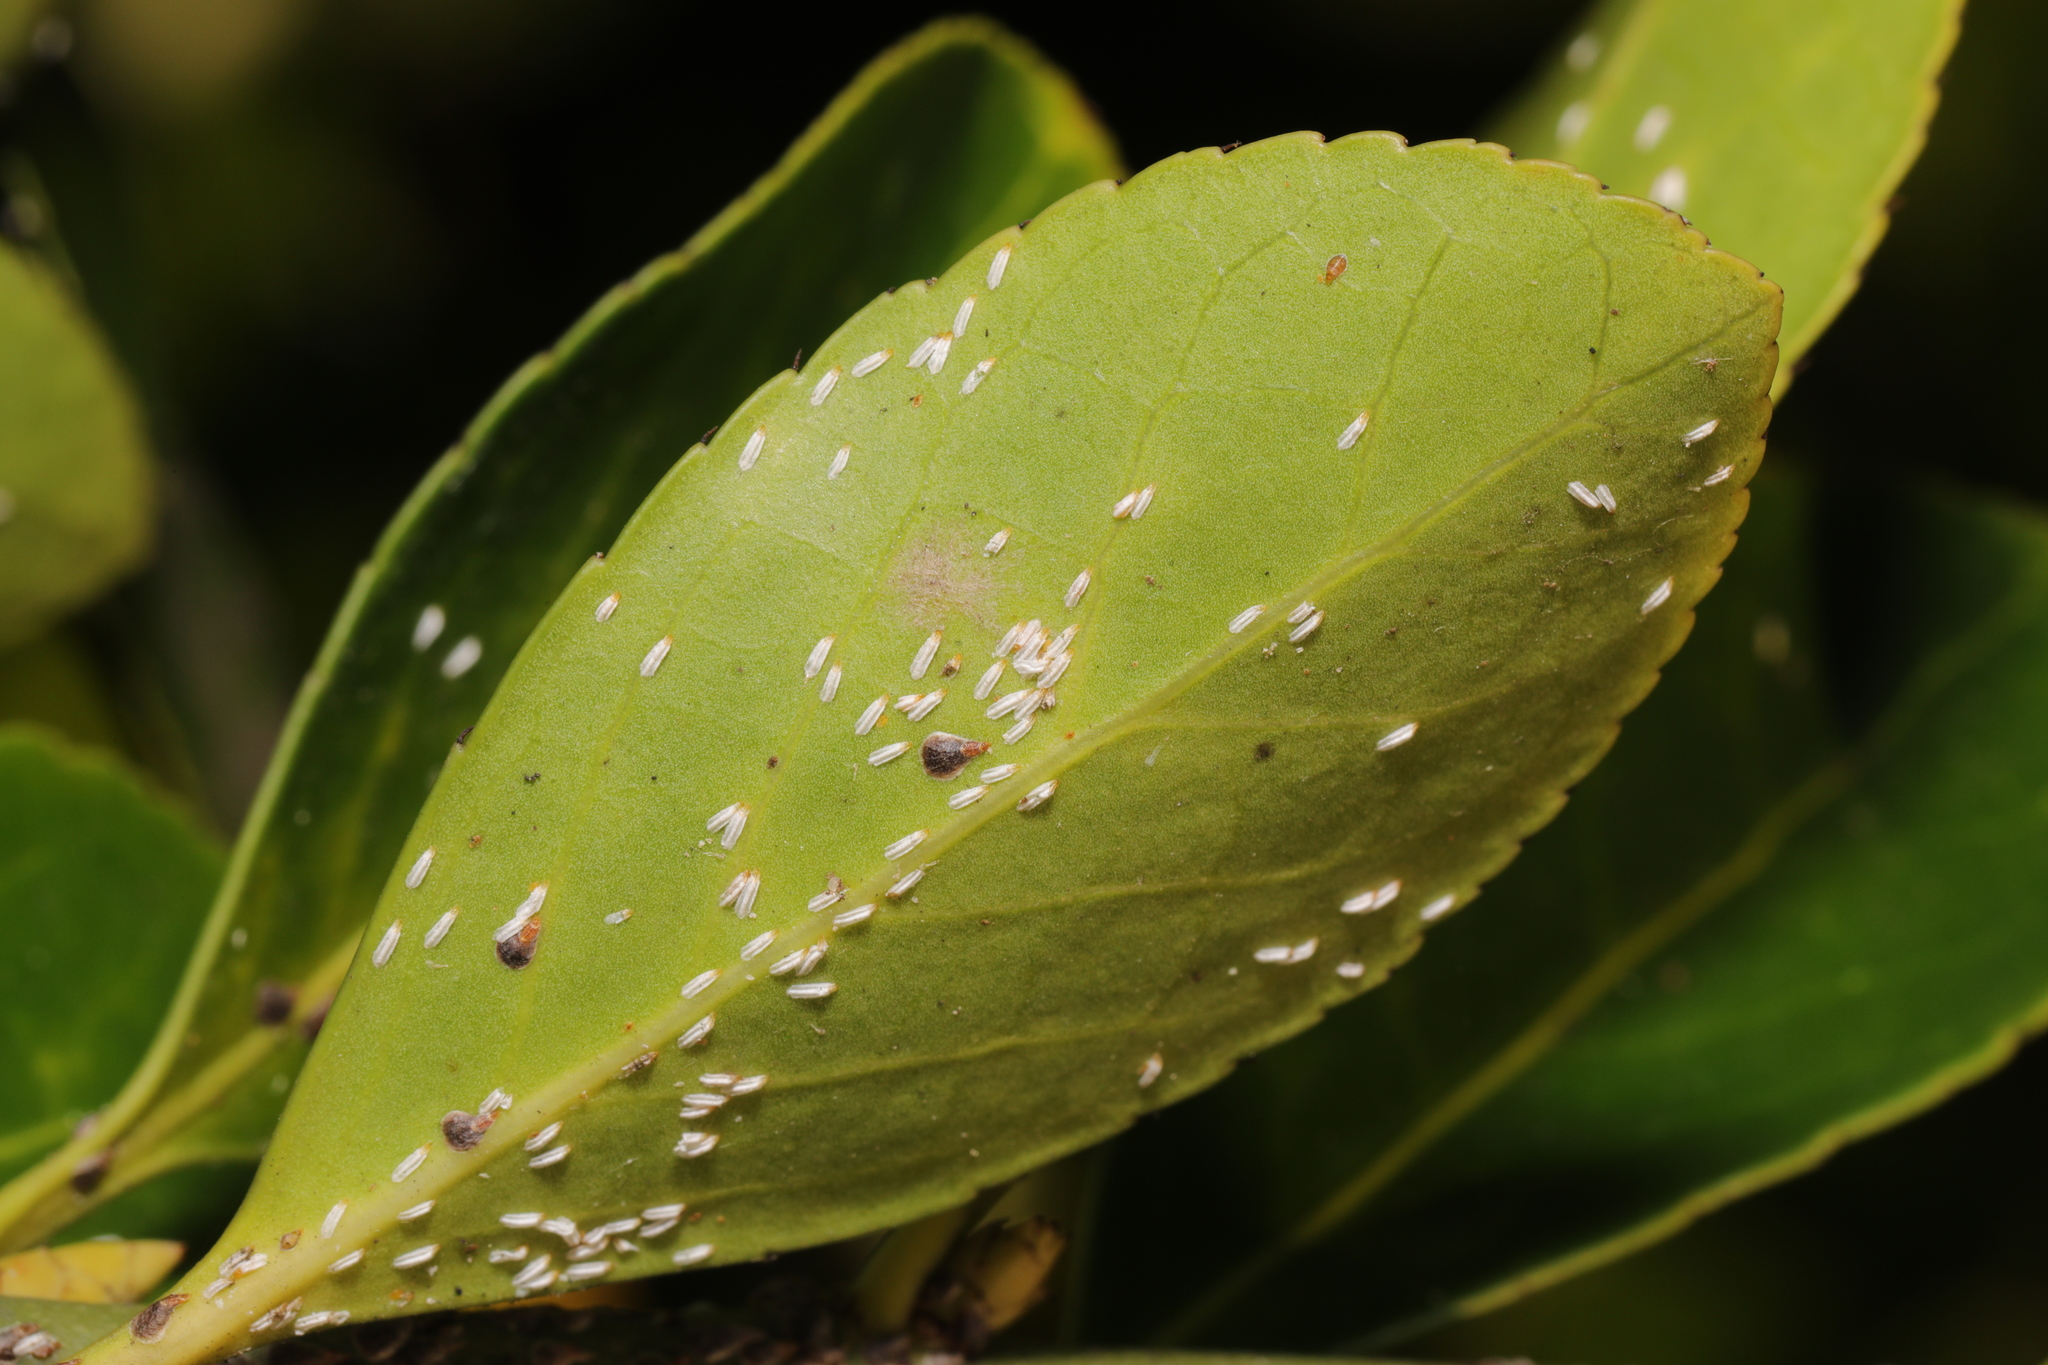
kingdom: Animalia
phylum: Arthropoda
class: Insecta
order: Hemiptera
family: Diaspididae
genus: Unaspis
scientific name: Unaspis euonymi
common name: Euonymus scale
